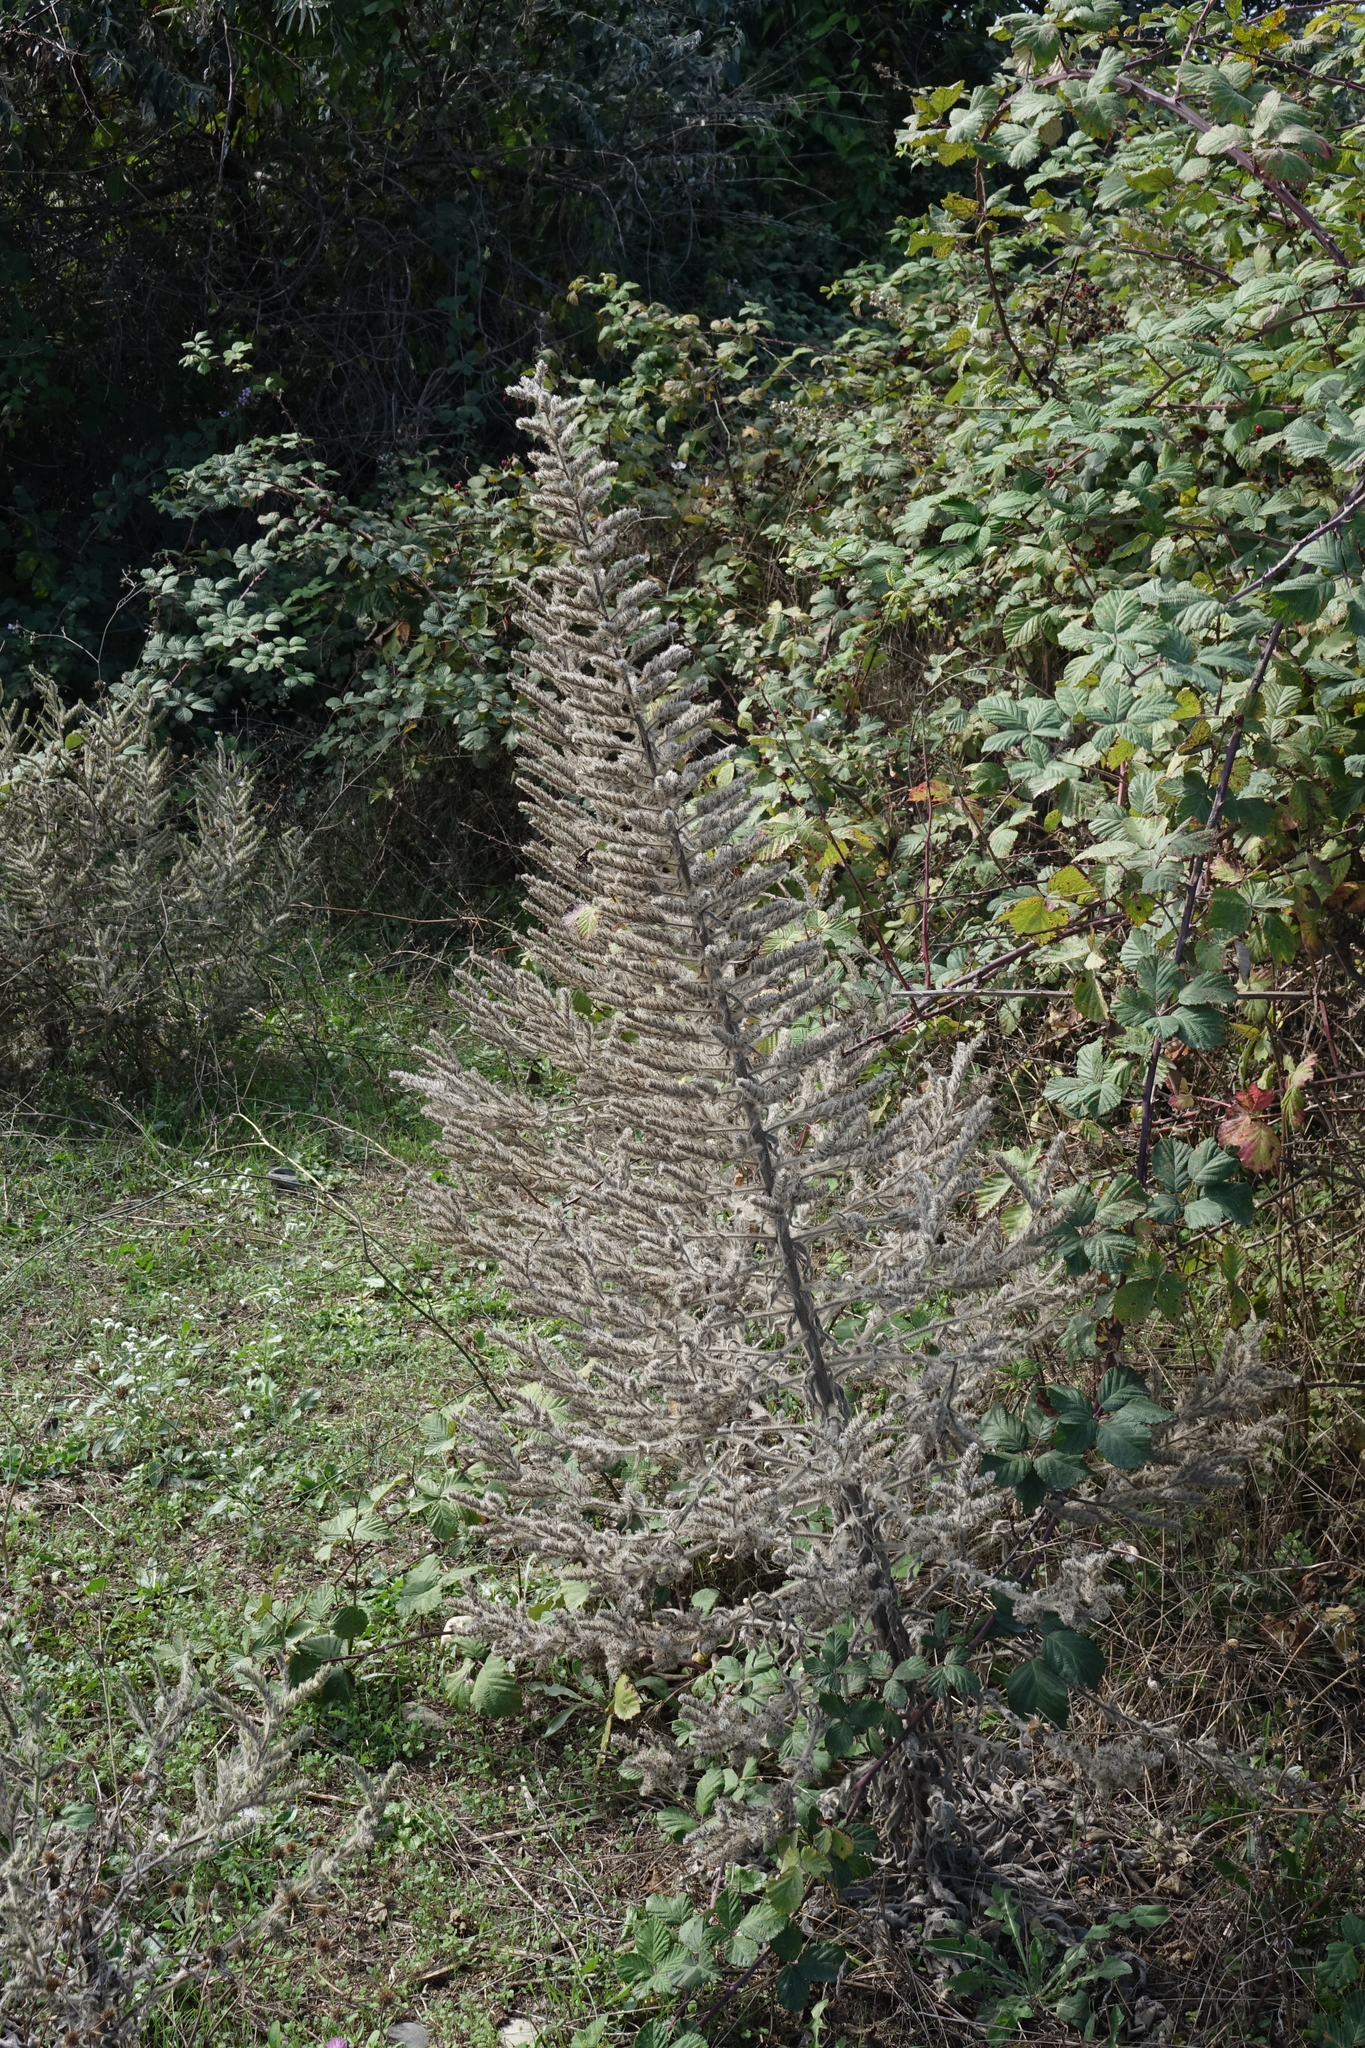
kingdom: Plantae
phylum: Tracheophyta
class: Magnoliopsida
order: Boraginales
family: Boraginaceae
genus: Echium
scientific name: Echium italicum
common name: Italian viper's bugloss
